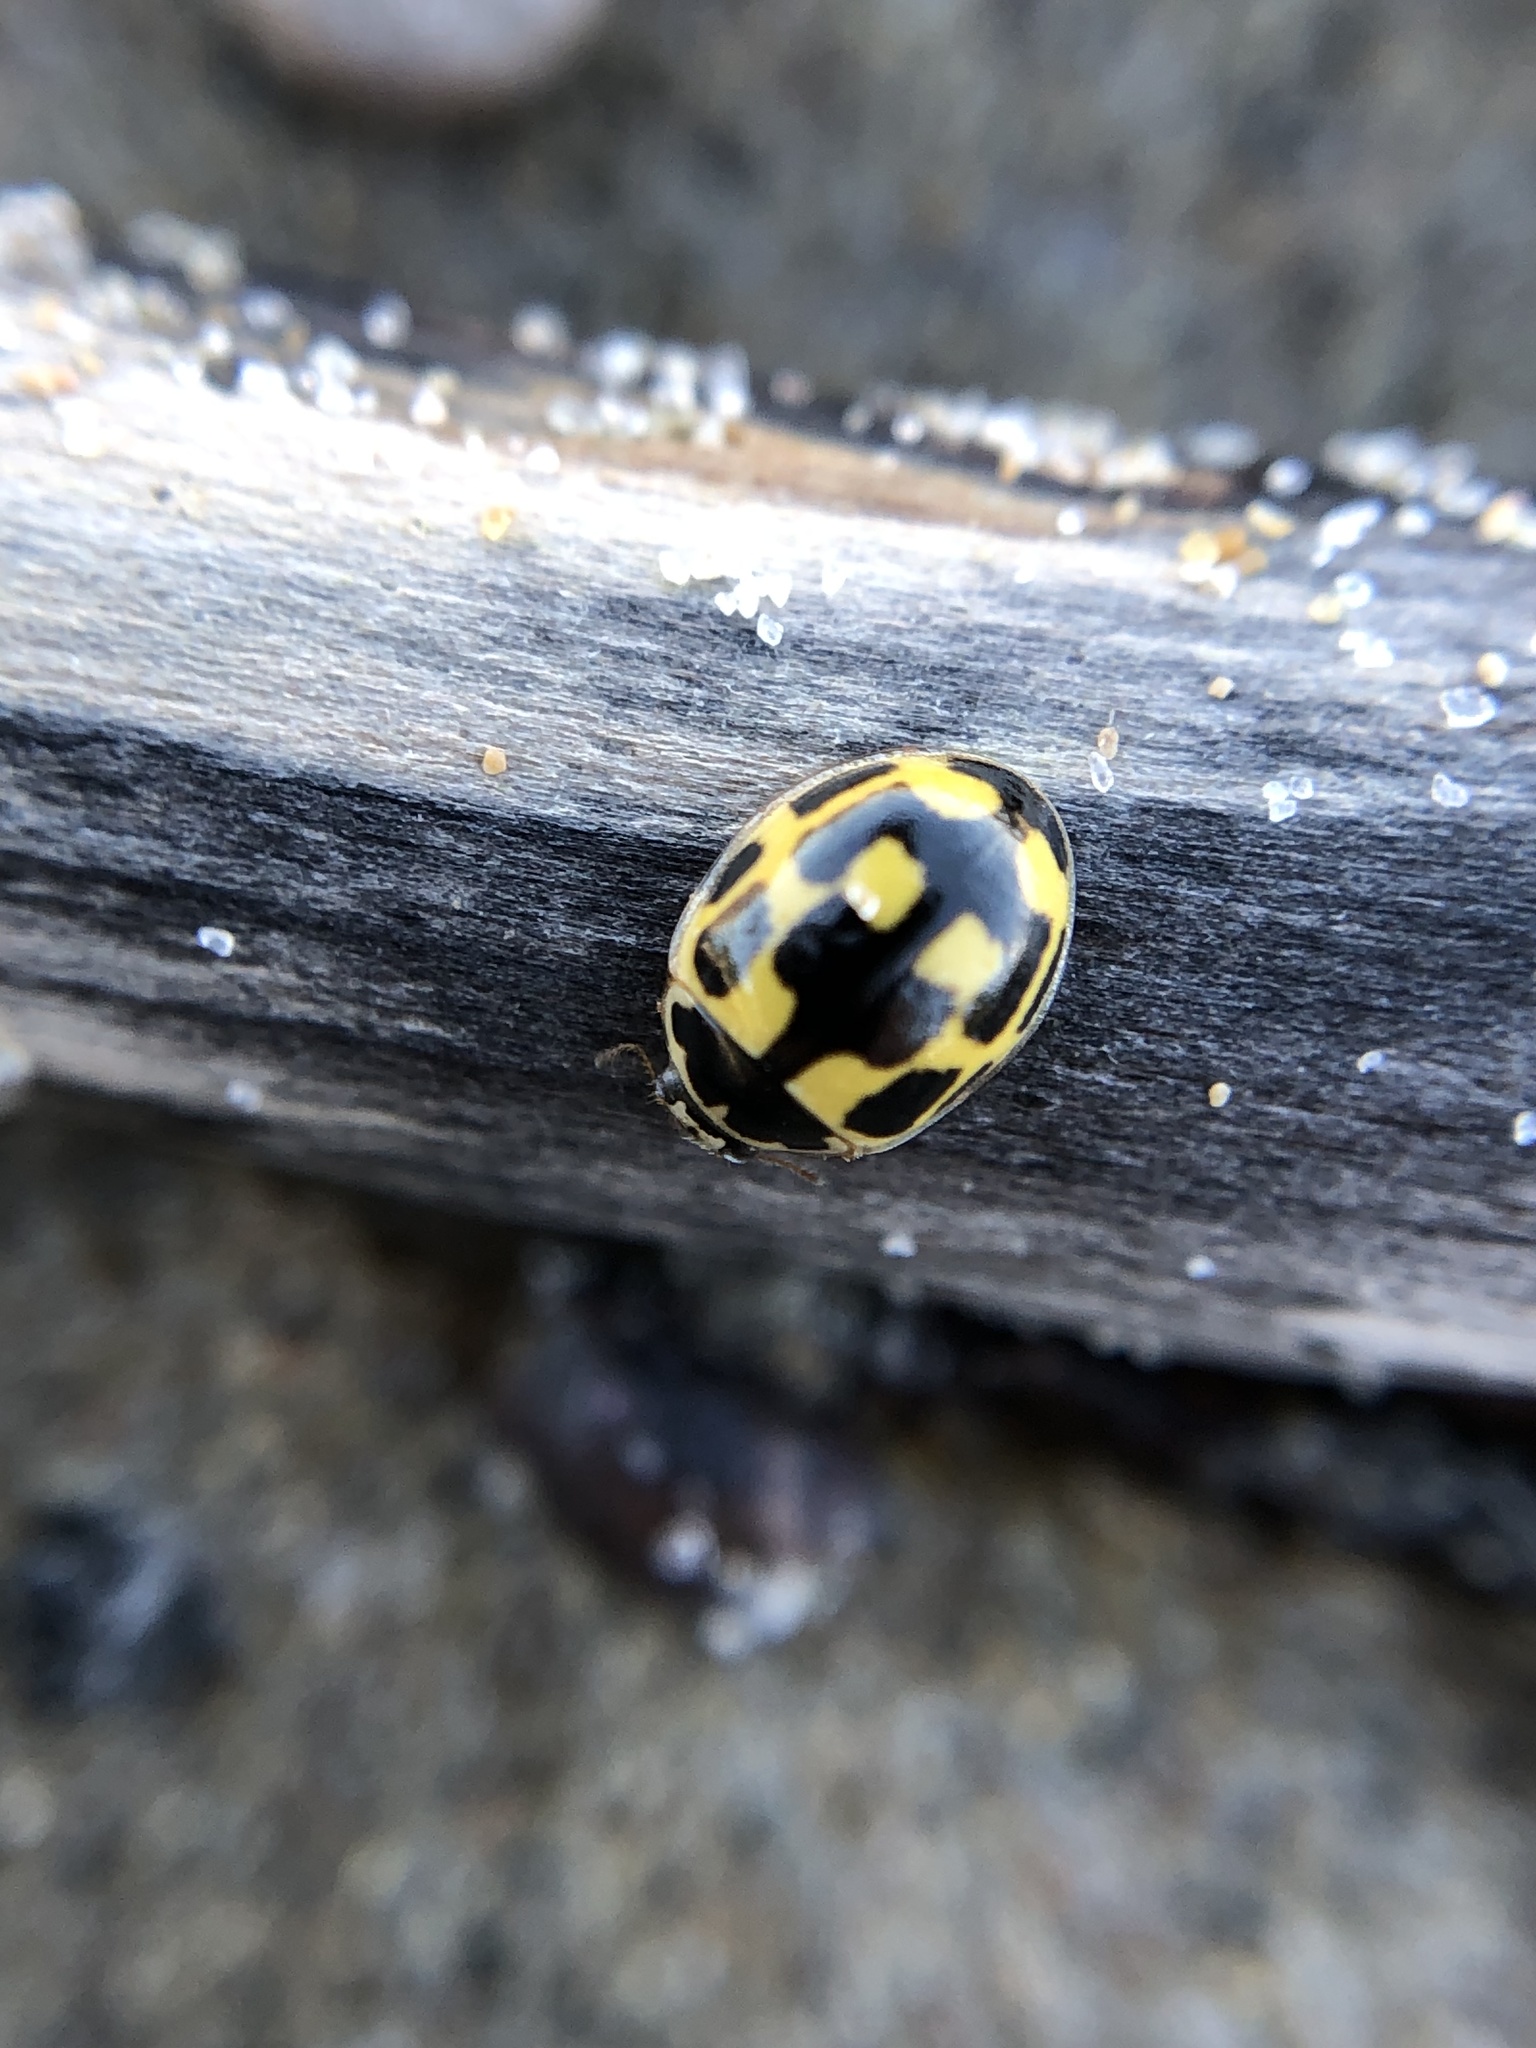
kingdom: Animalia
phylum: Arthropoda
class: Insecta
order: Coleoptera
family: Coccinellidae
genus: Propylaea
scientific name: Propylaea quatuordecimpunctata
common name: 14-spotted ladybird beetle
